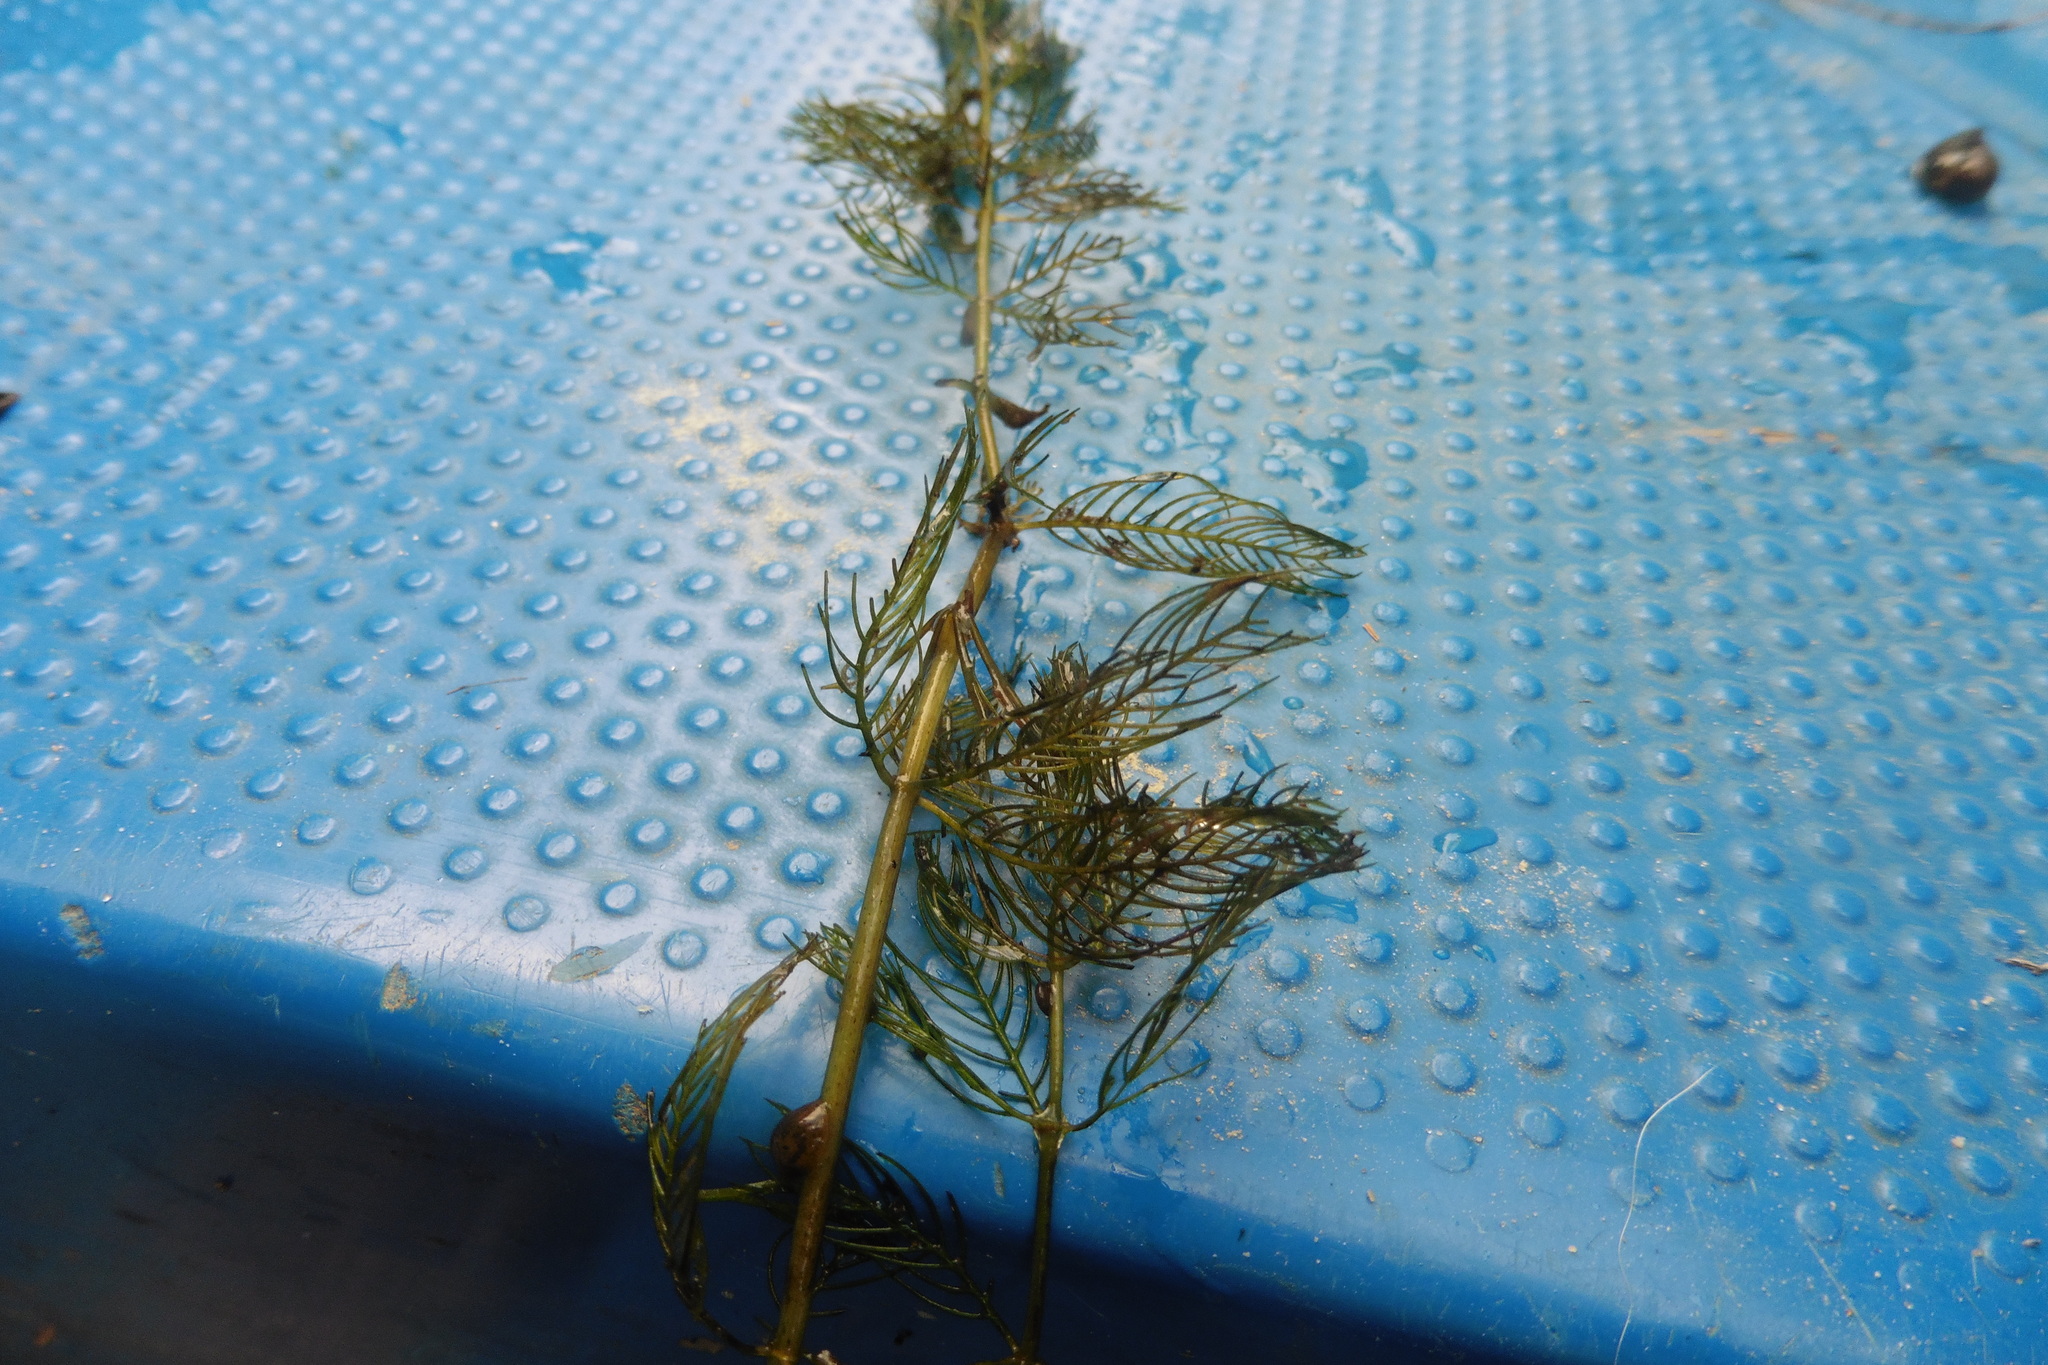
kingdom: Plantae
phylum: Tracheophyta
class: Magnoliopsida
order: Saxifragales
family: Haloragaceae
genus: Myriophyllum
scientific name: Myriophyllum spicatum
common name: Spiked water-milfoil
